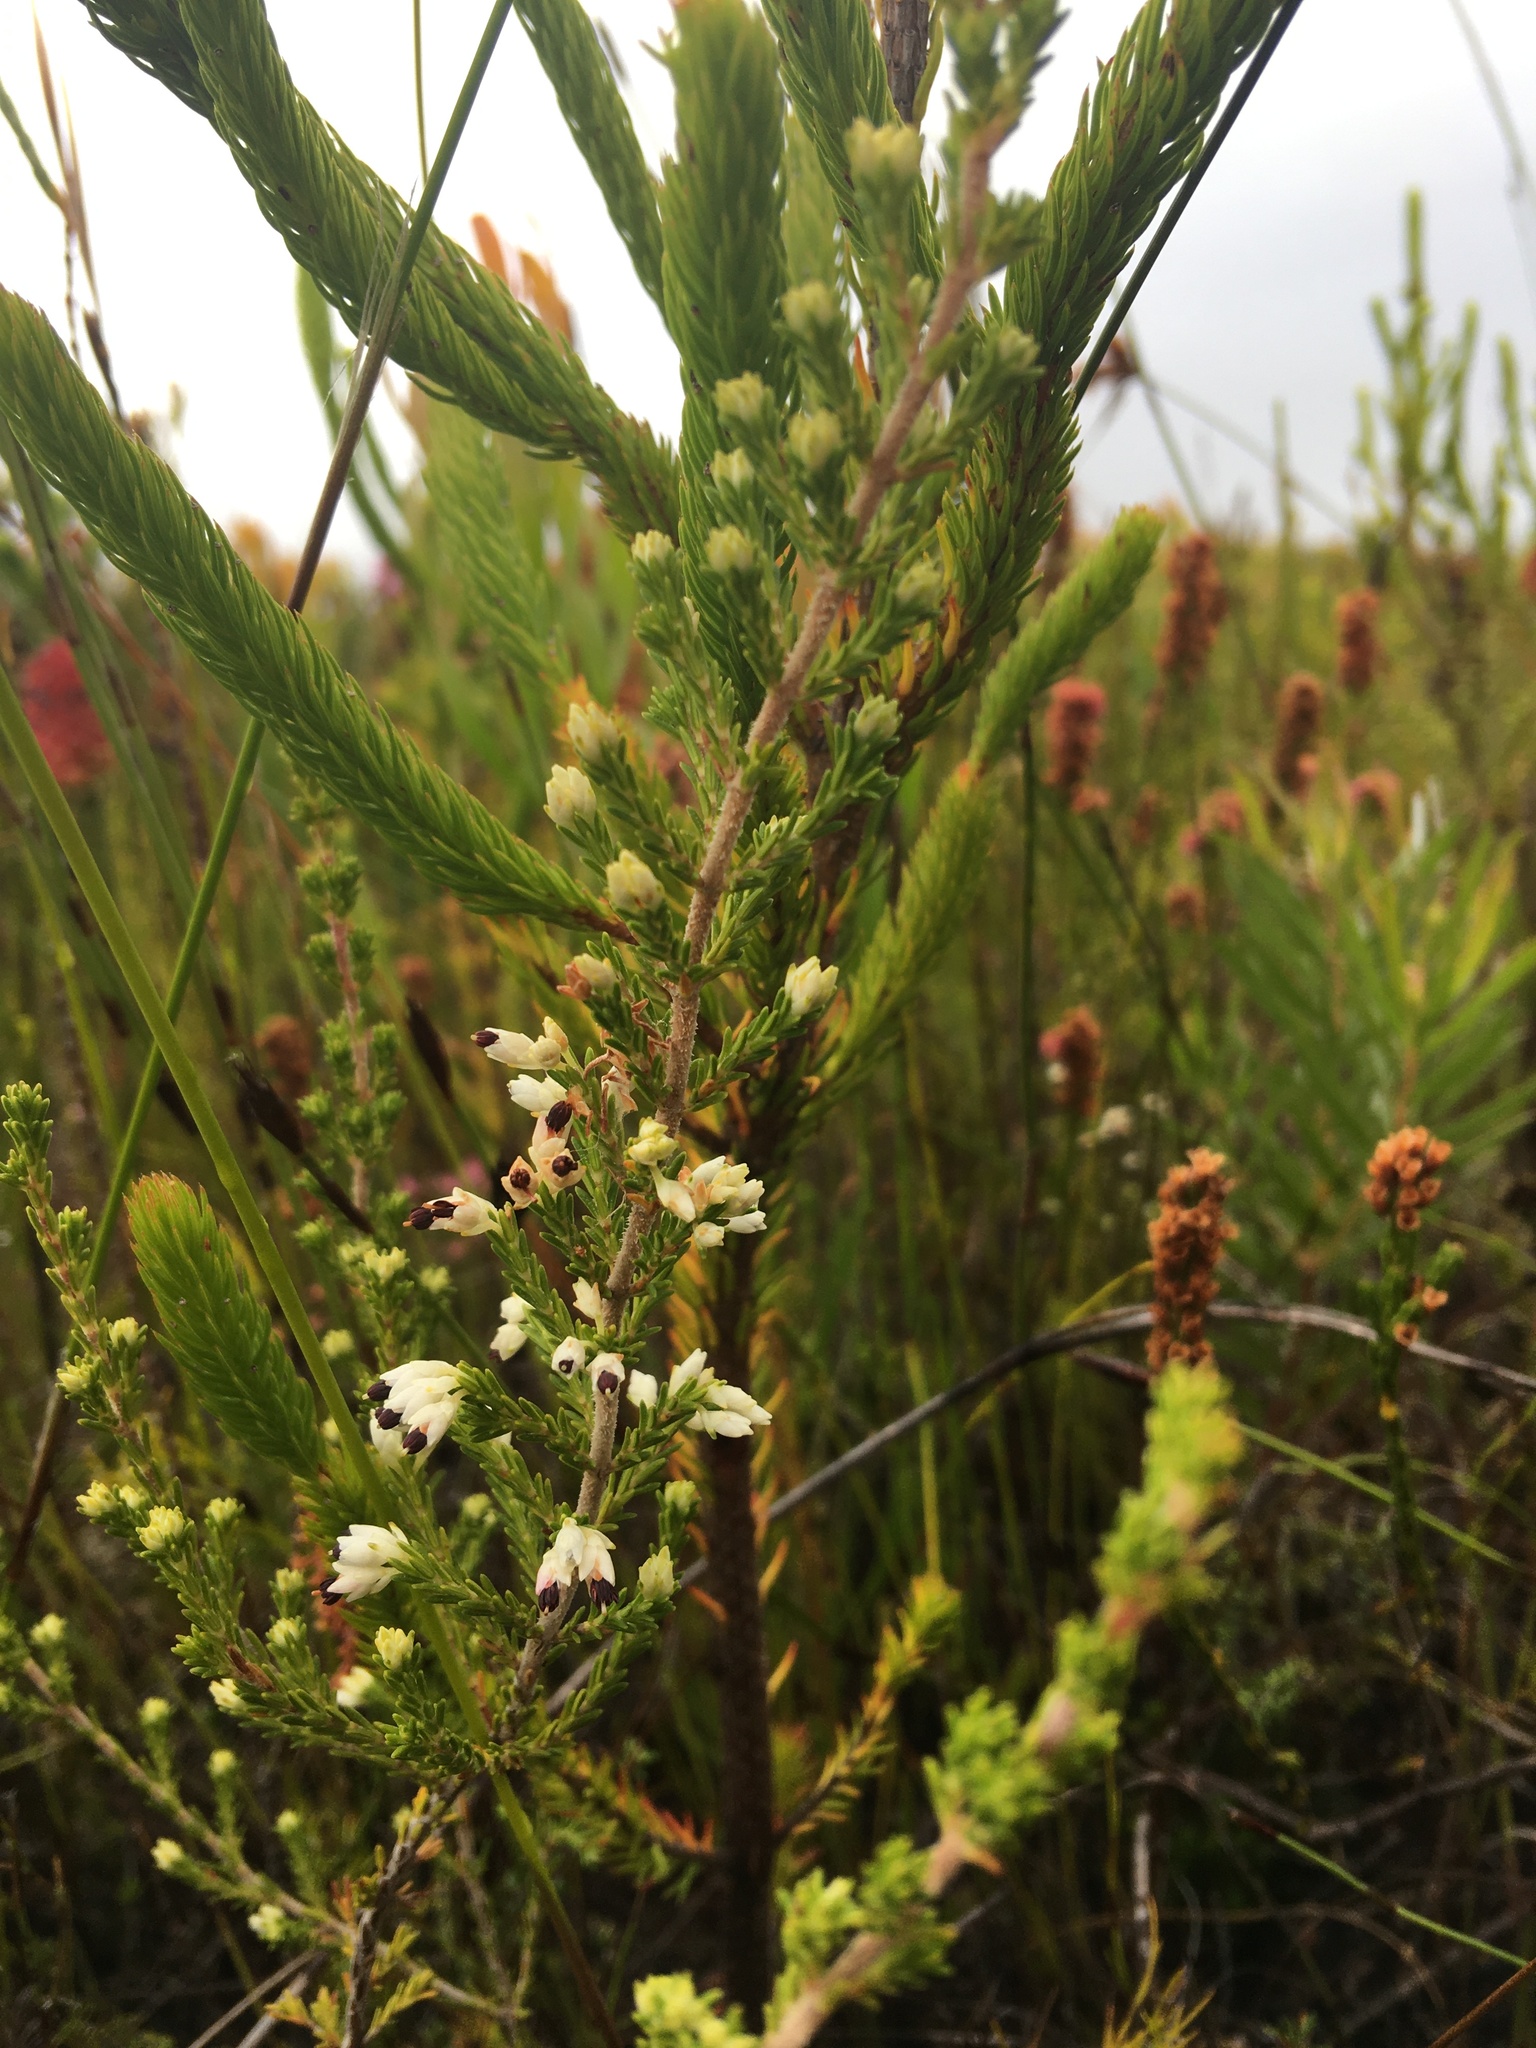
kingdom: Plantae
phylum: Tracheophyta
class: Magnoliopsida
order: Ericales
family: Ericaceae
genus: Erica
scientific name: Erica imbricata
